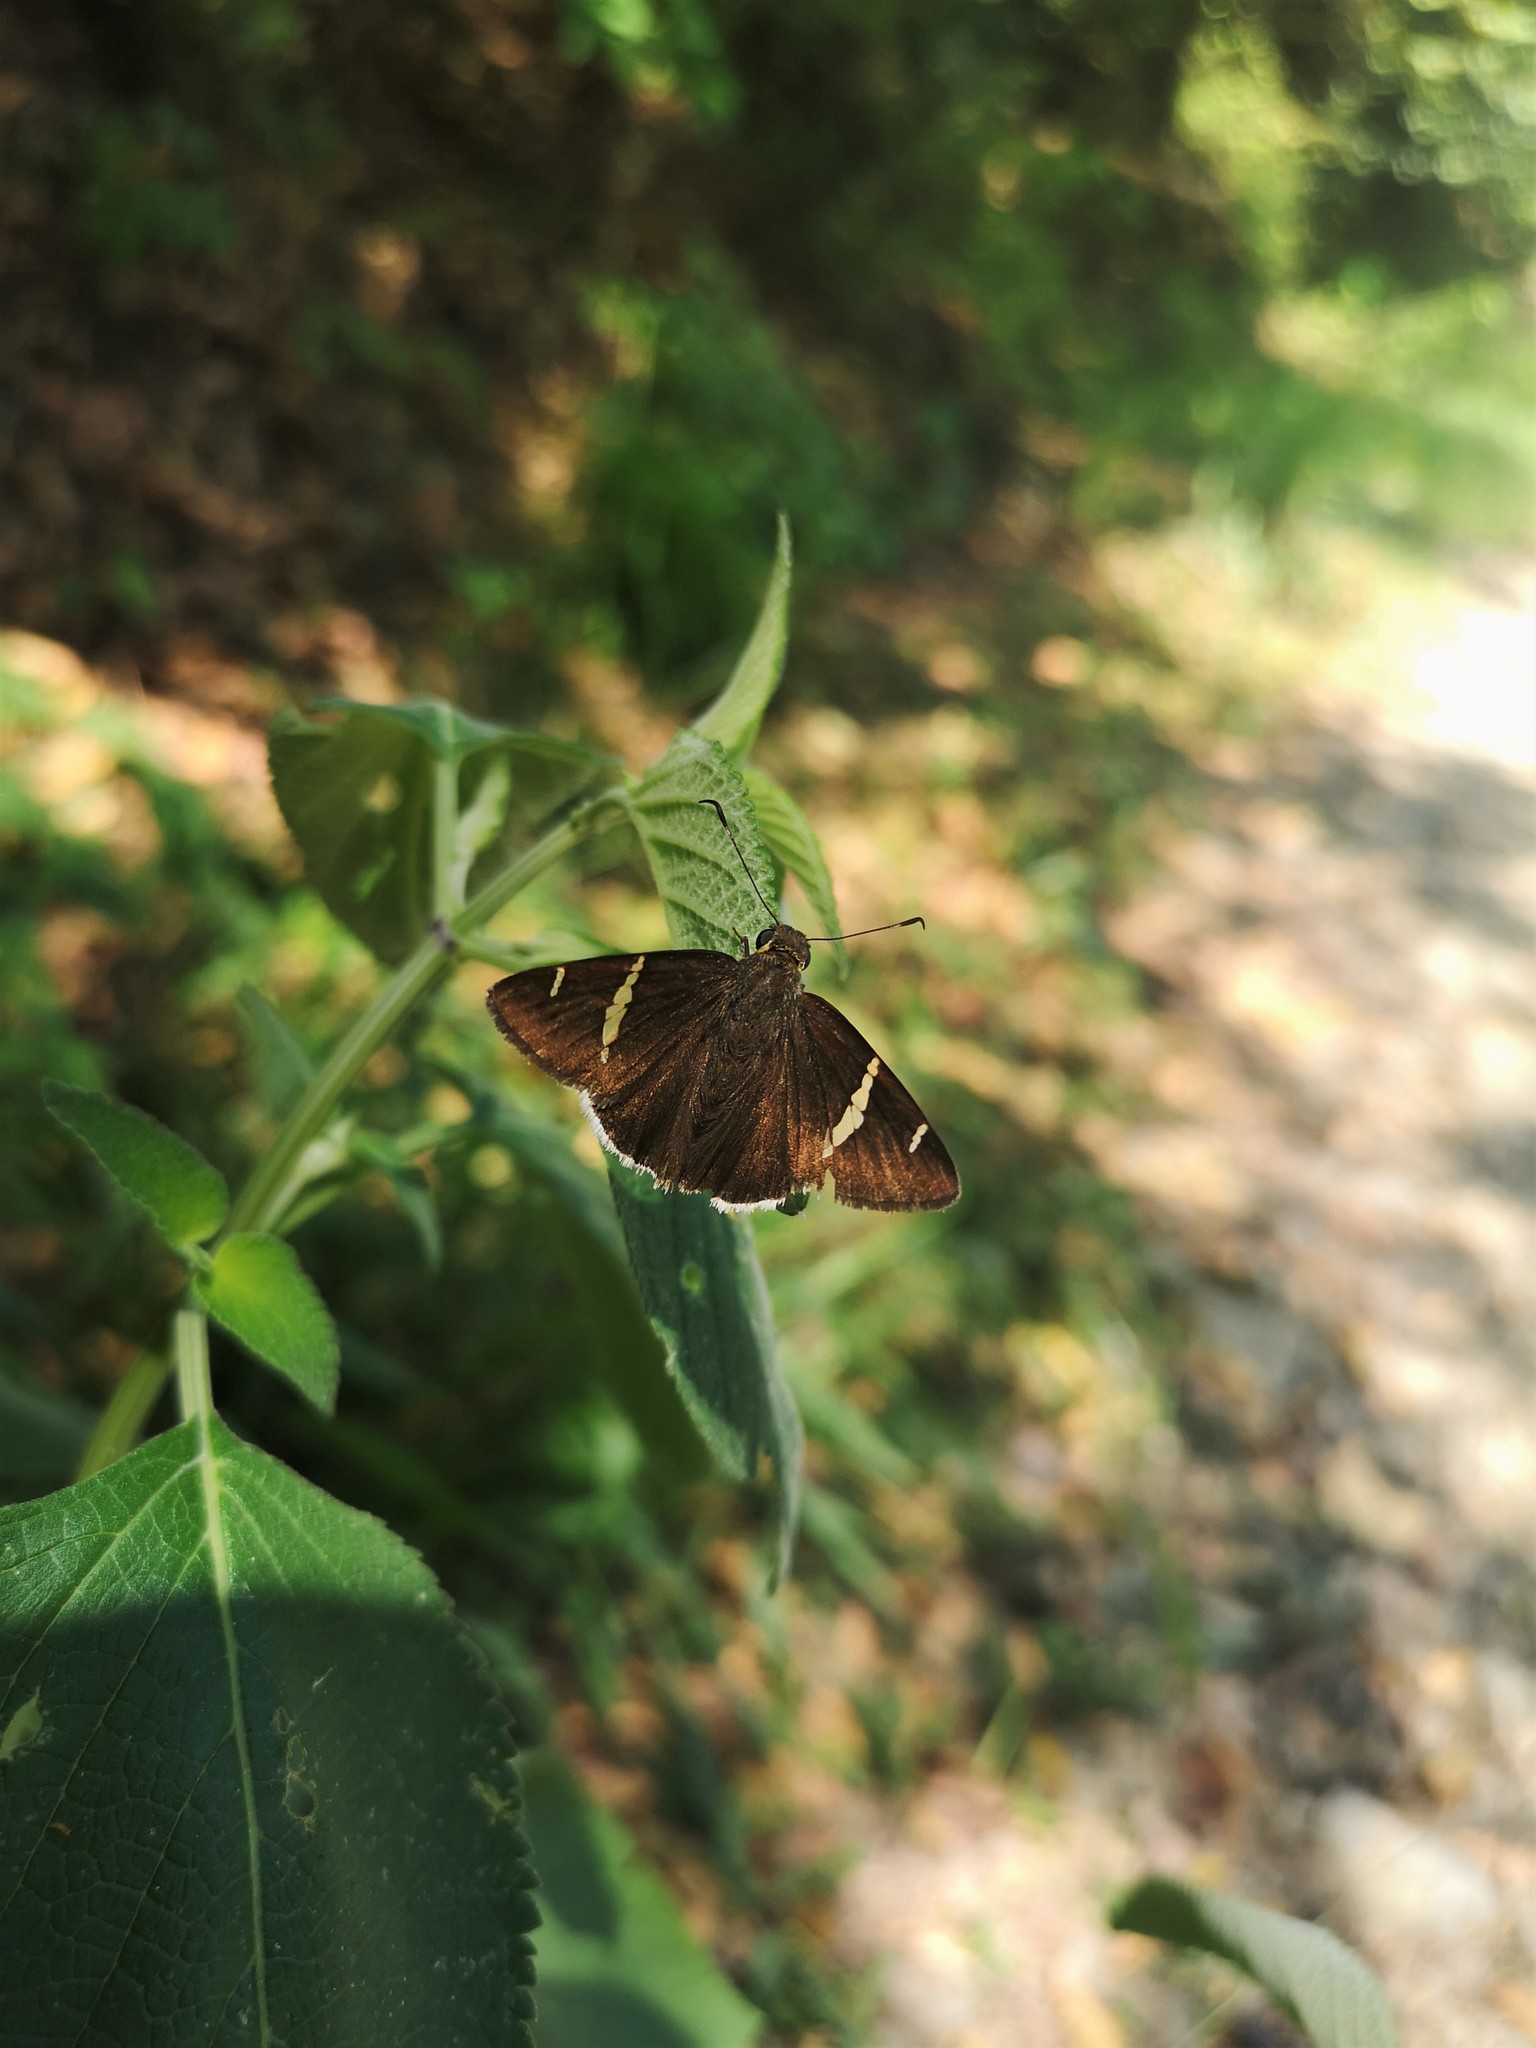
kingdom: Animalia
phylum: Arthropoda
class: Insecta
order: Lepidoptera
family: Hesperiidae
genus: Thorybes
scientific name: Thorybes cincta
